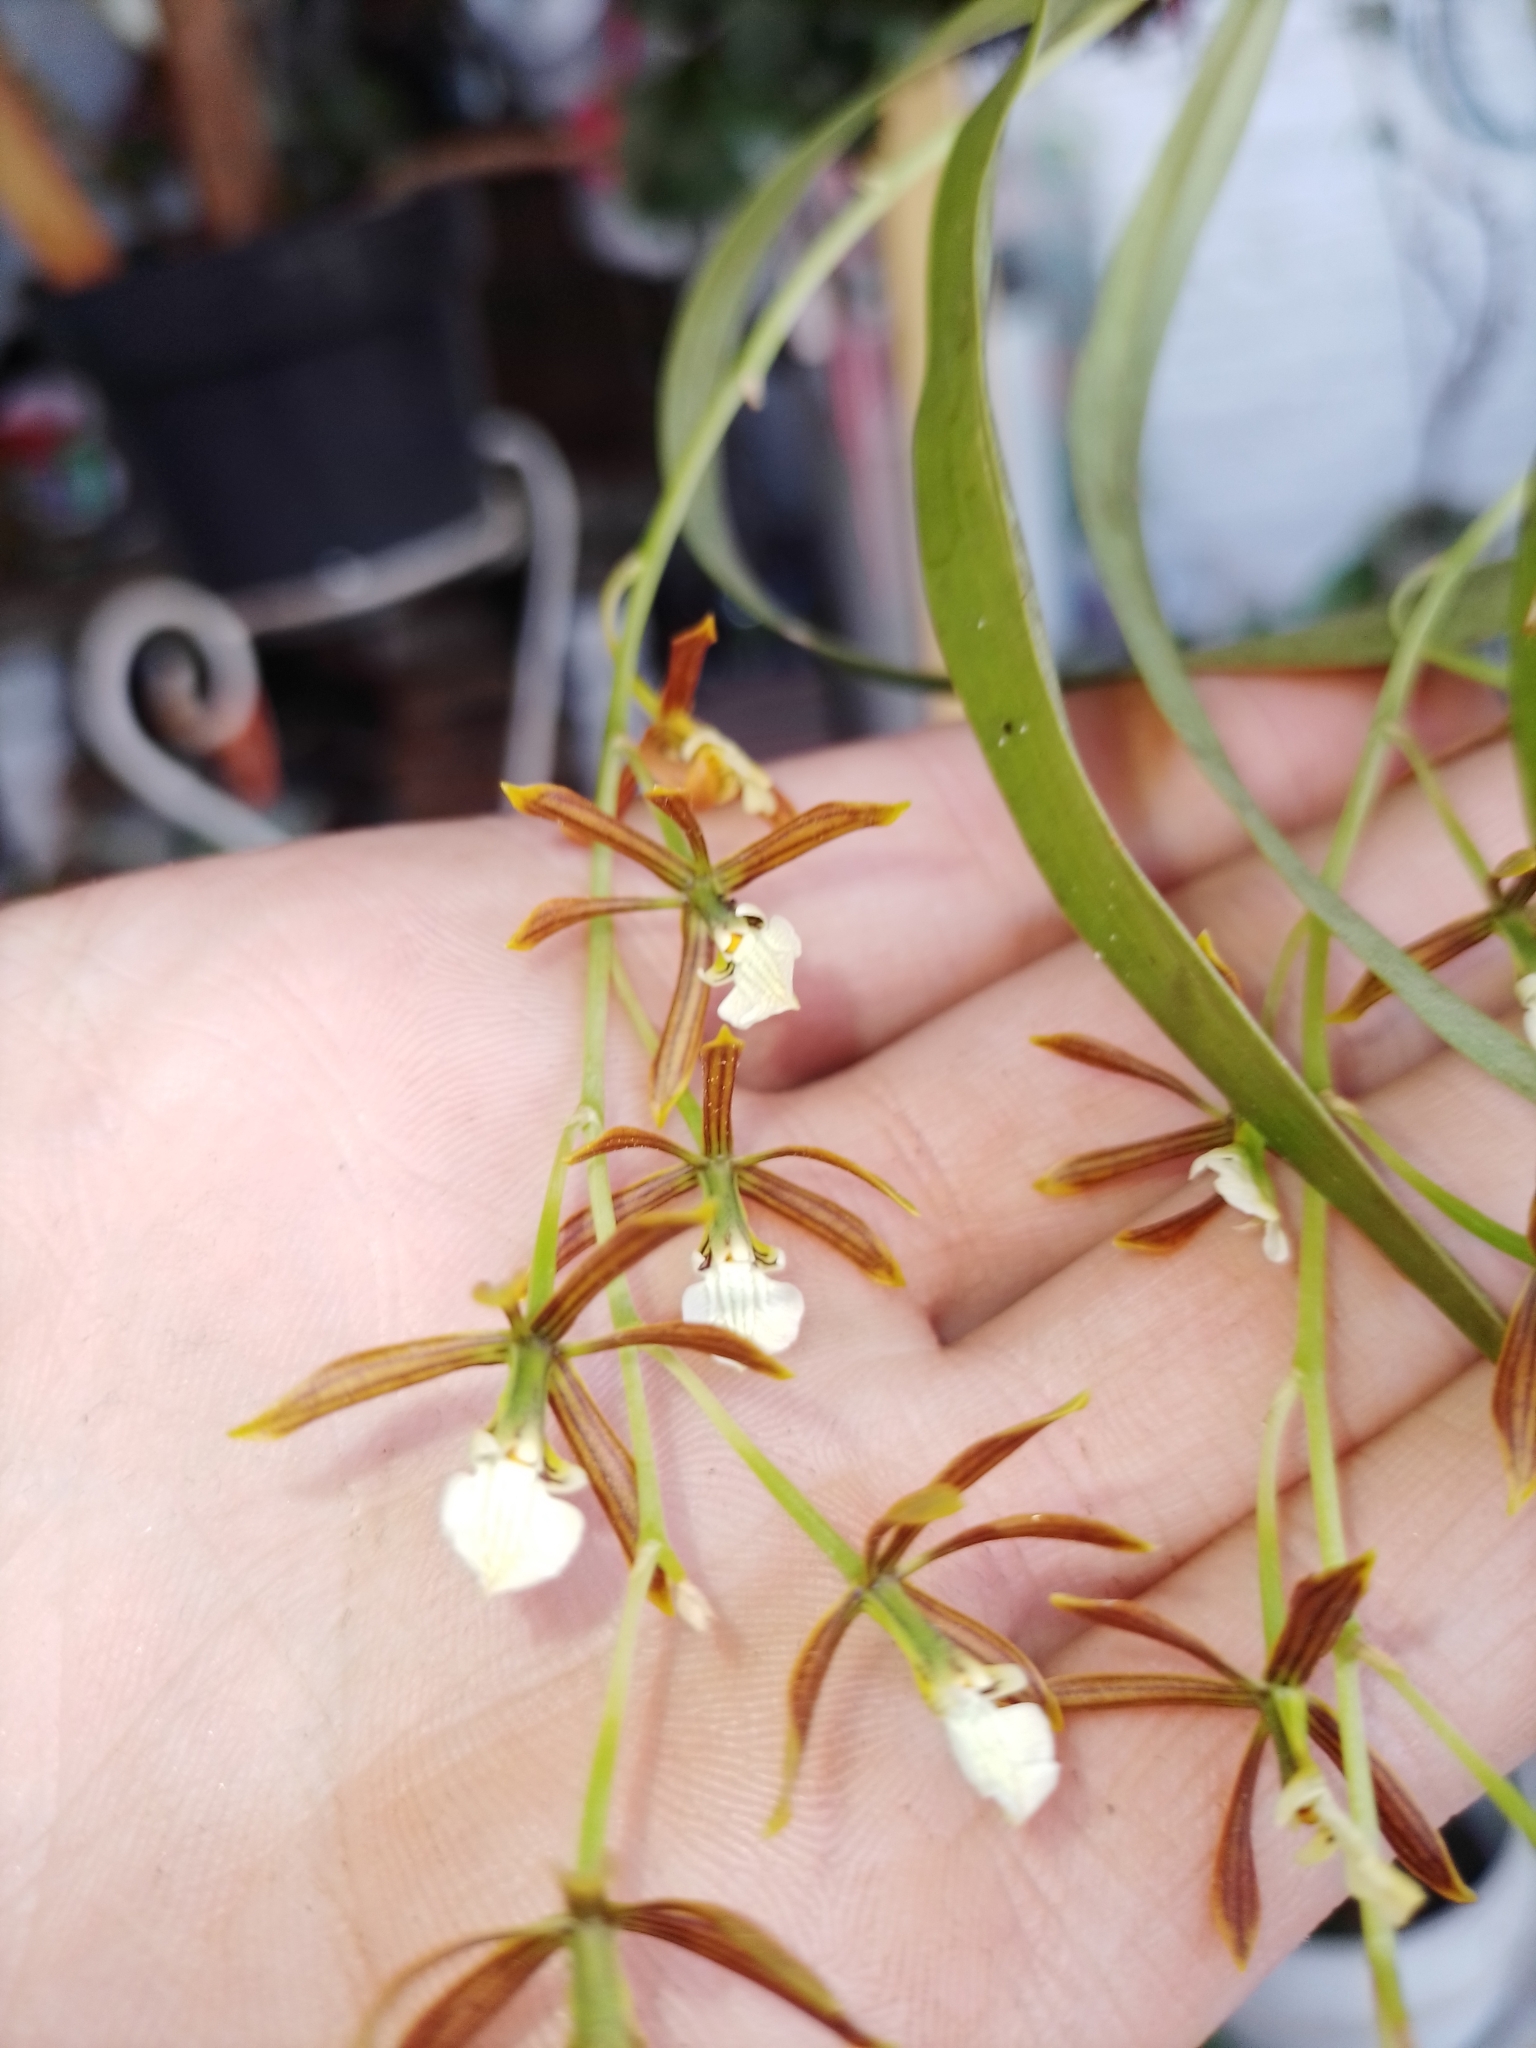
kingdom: Plantae
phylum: Tracheophyta
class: Liliopsida
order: Asparagales
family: Orchidaceae
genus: Prosthechea
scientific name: Prosthechea squalida
